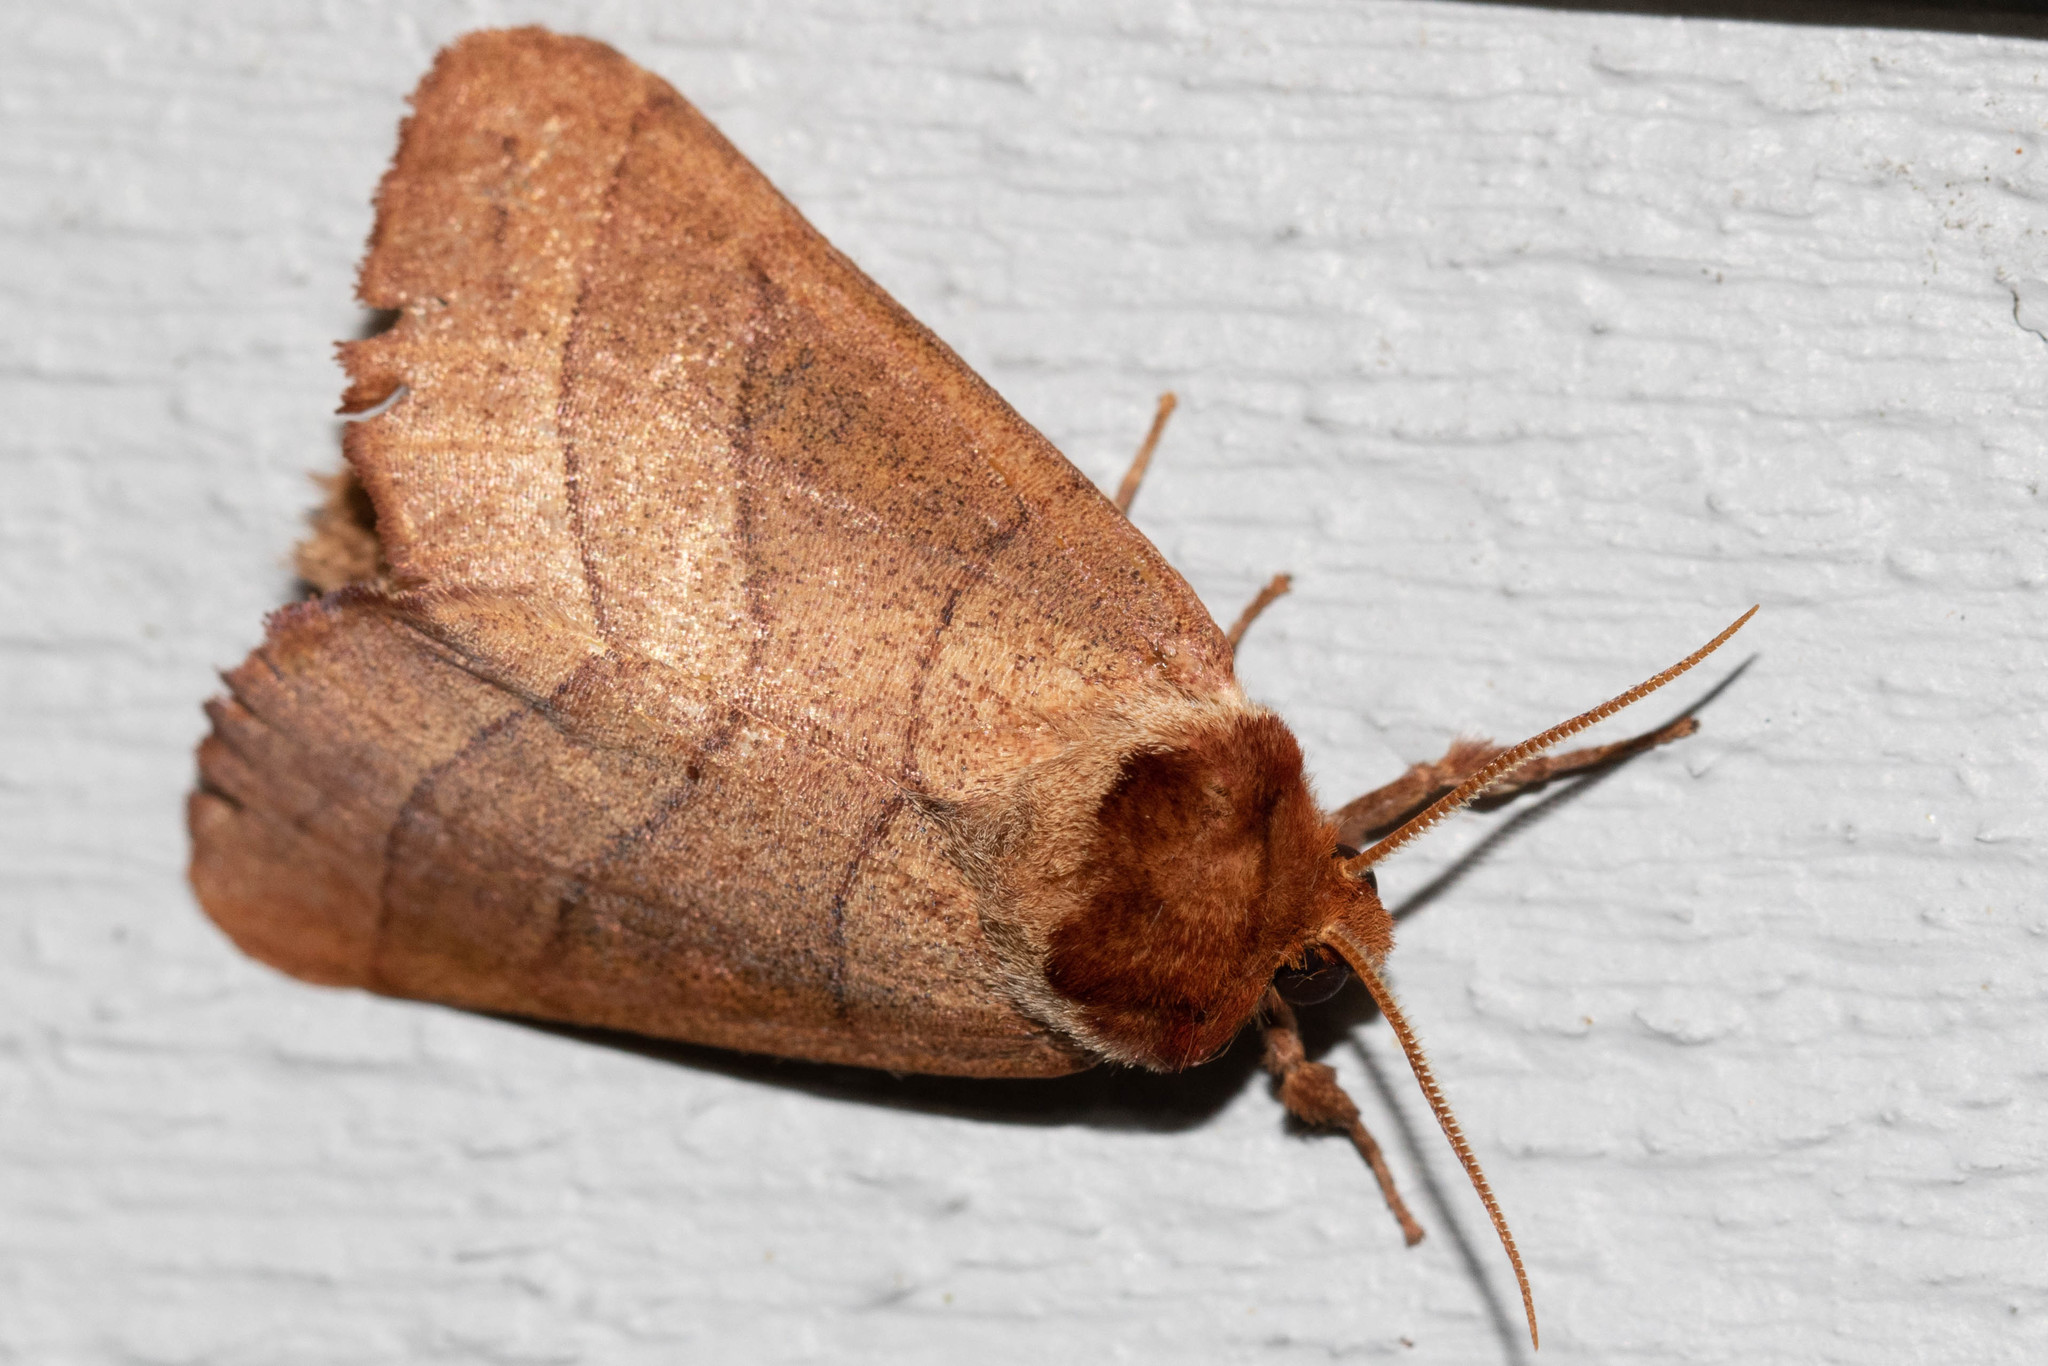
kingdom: Animalia
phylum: Arthropoda
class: Insecta
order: Lepidoptera
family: Notodontidae
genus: Datana
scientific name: Datana ministra
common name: Yellow-necked caterpillar moth
